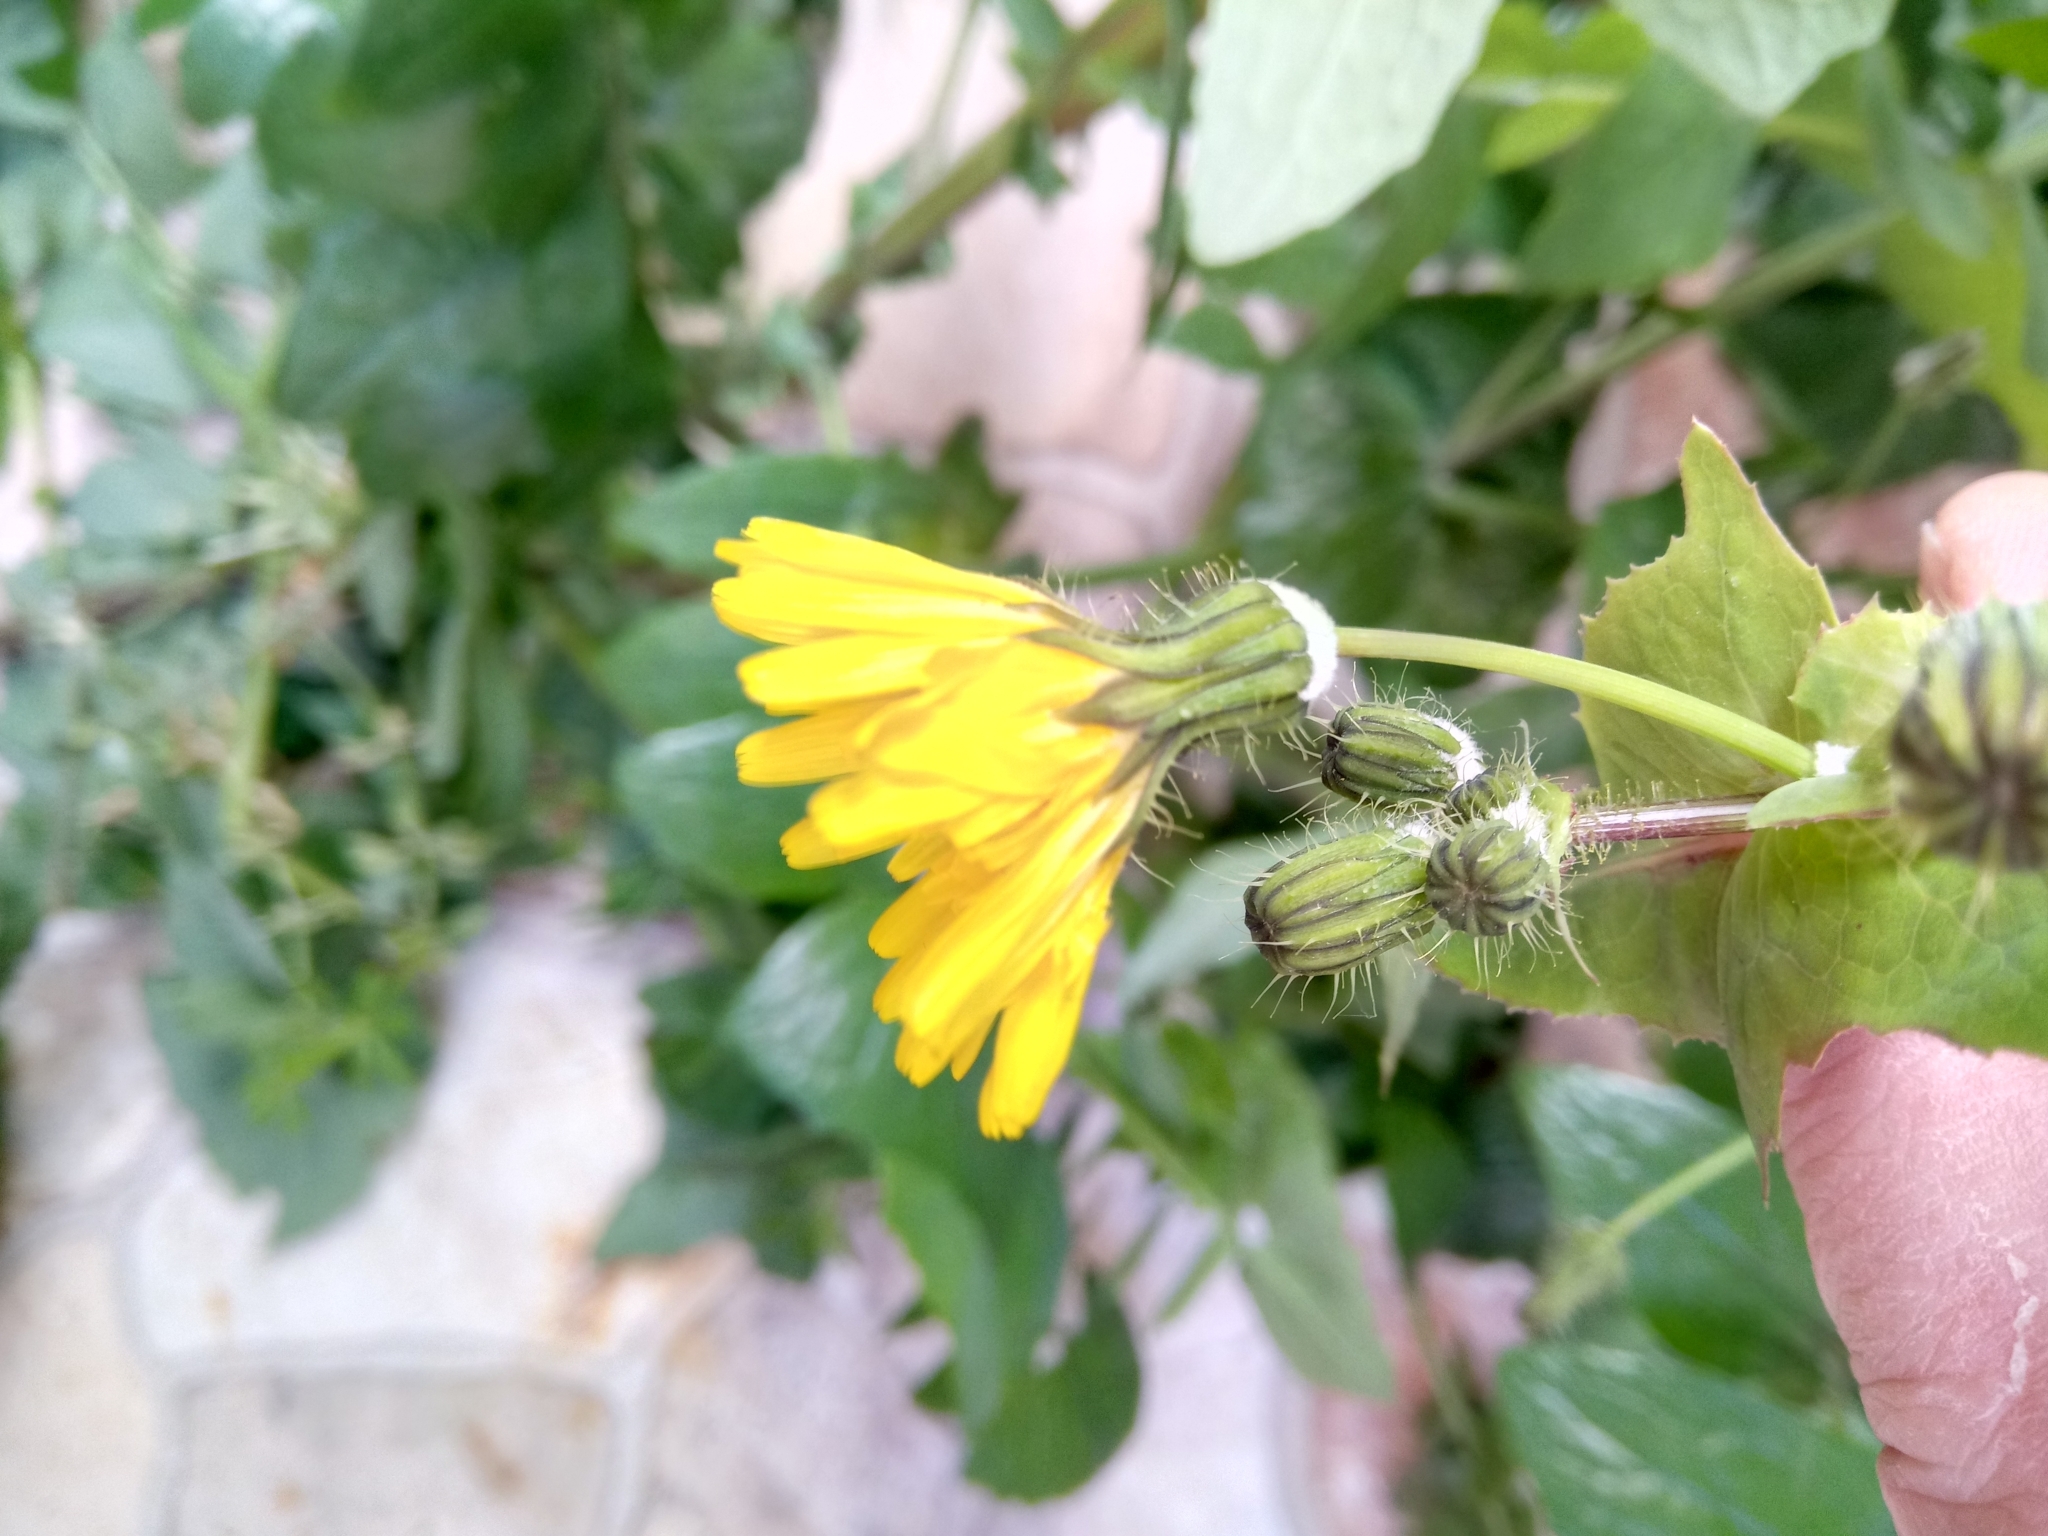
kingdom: Plantae
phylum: Tracheophyta
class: Magnoliopsida
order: Asterales
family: Asteraceae
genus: Sonchus
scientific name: Sonchus tenerrimus
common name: Clammy sowthistle
